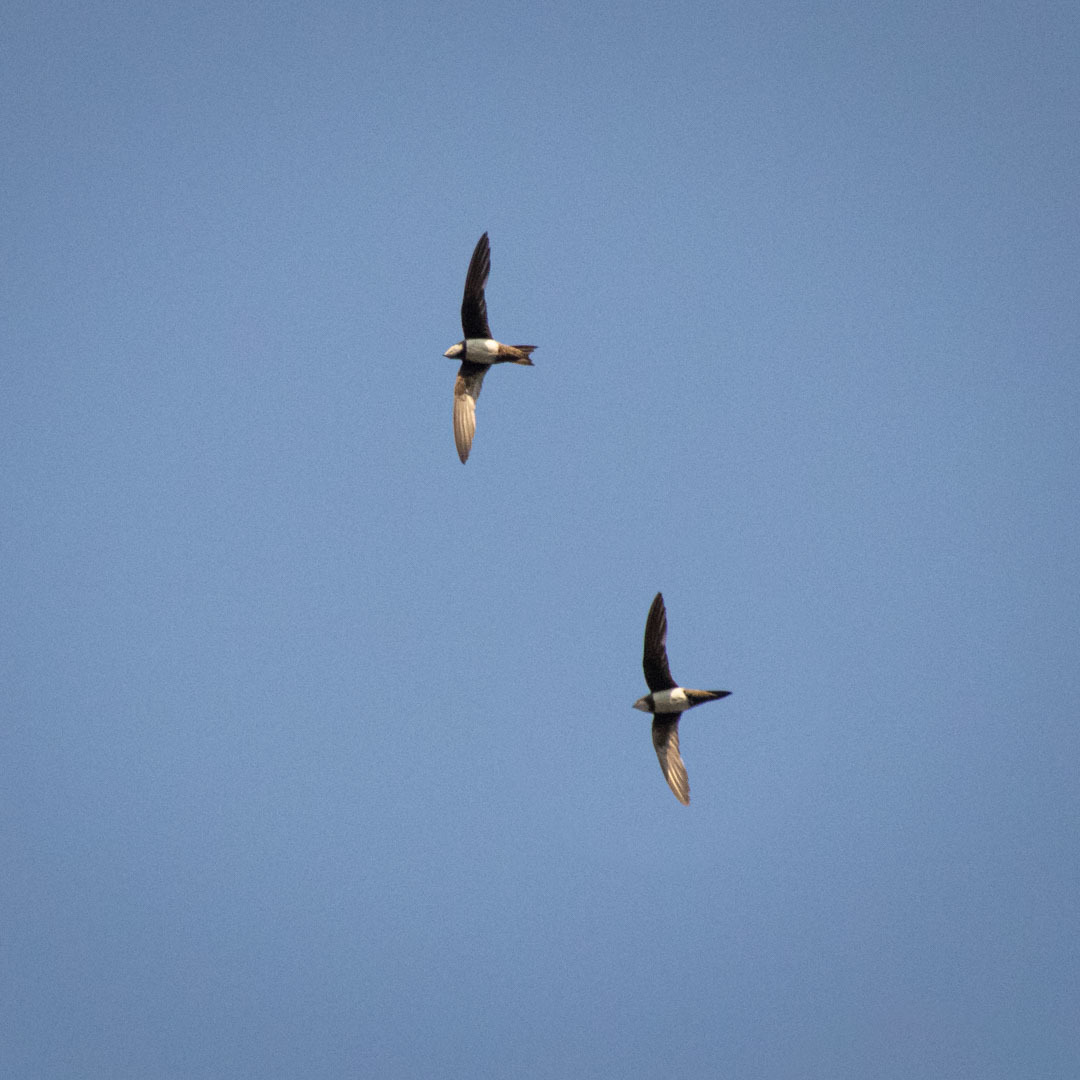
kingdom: Animalia
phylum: Chordata
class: Aves
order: Apodiformes
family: Apodidae
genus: Tachymarptis
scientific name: Tachymarptis melba
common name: Alpine swift
